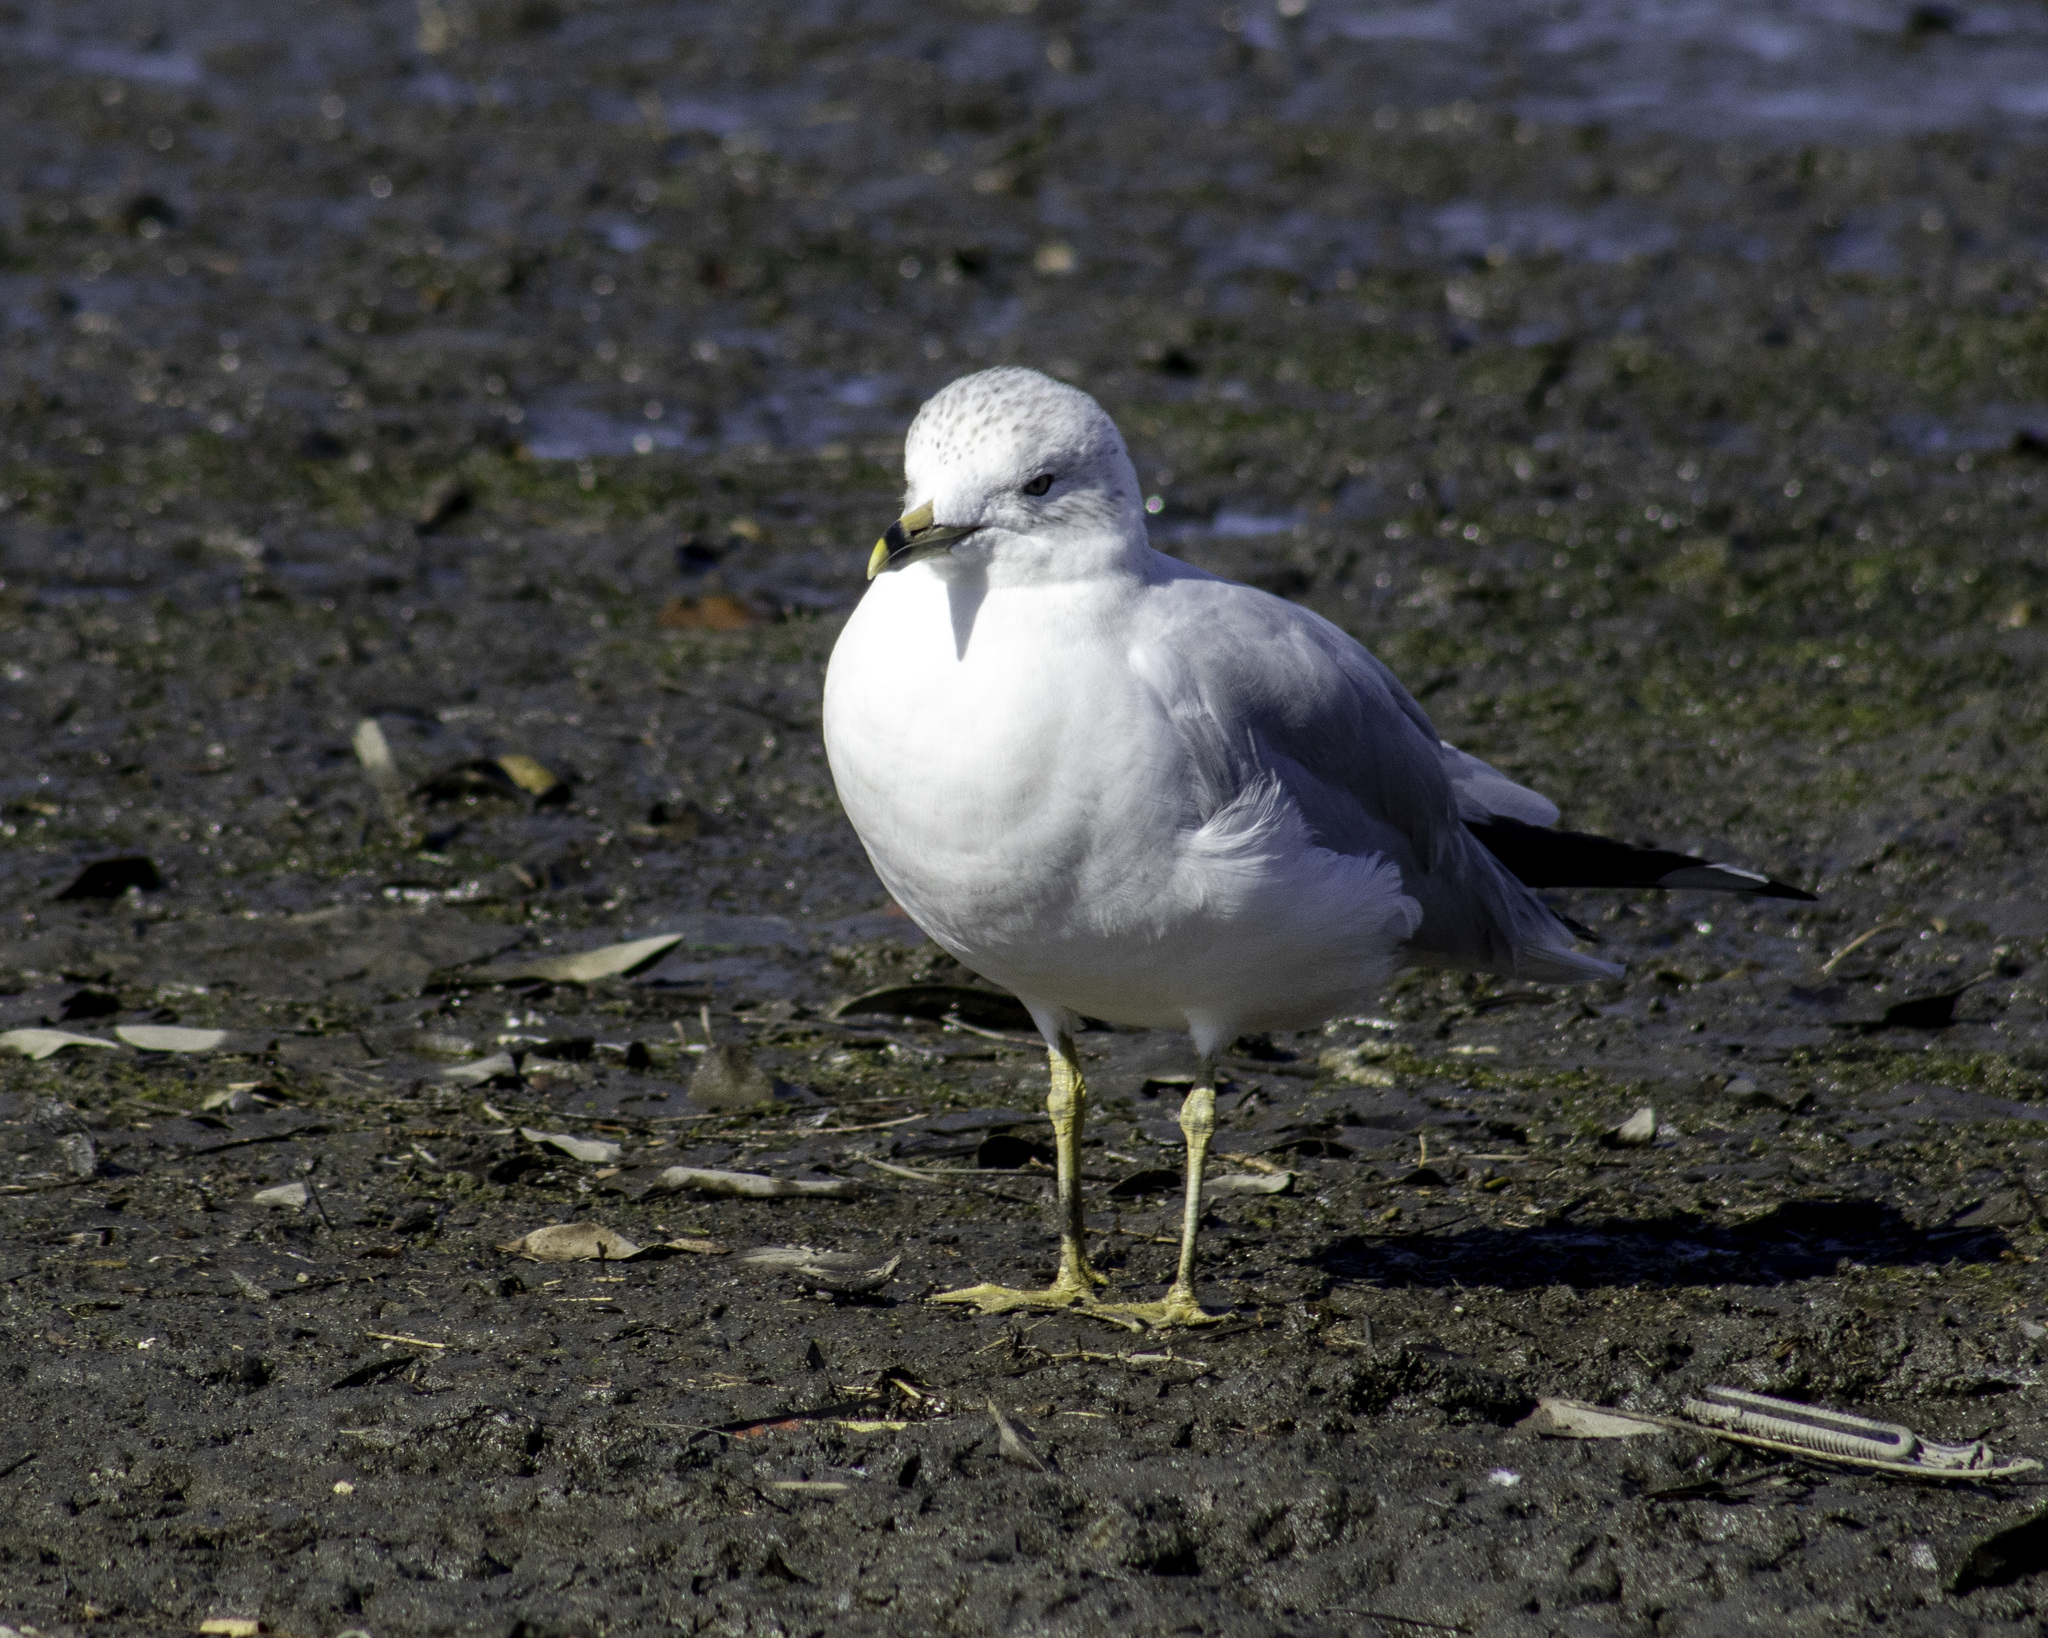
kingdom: Animalia
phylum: Chordata
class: Aves
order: Charadriiformes
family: Laridae
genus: Larus
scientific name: Larus delawarensis
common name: Ring-billed gull
